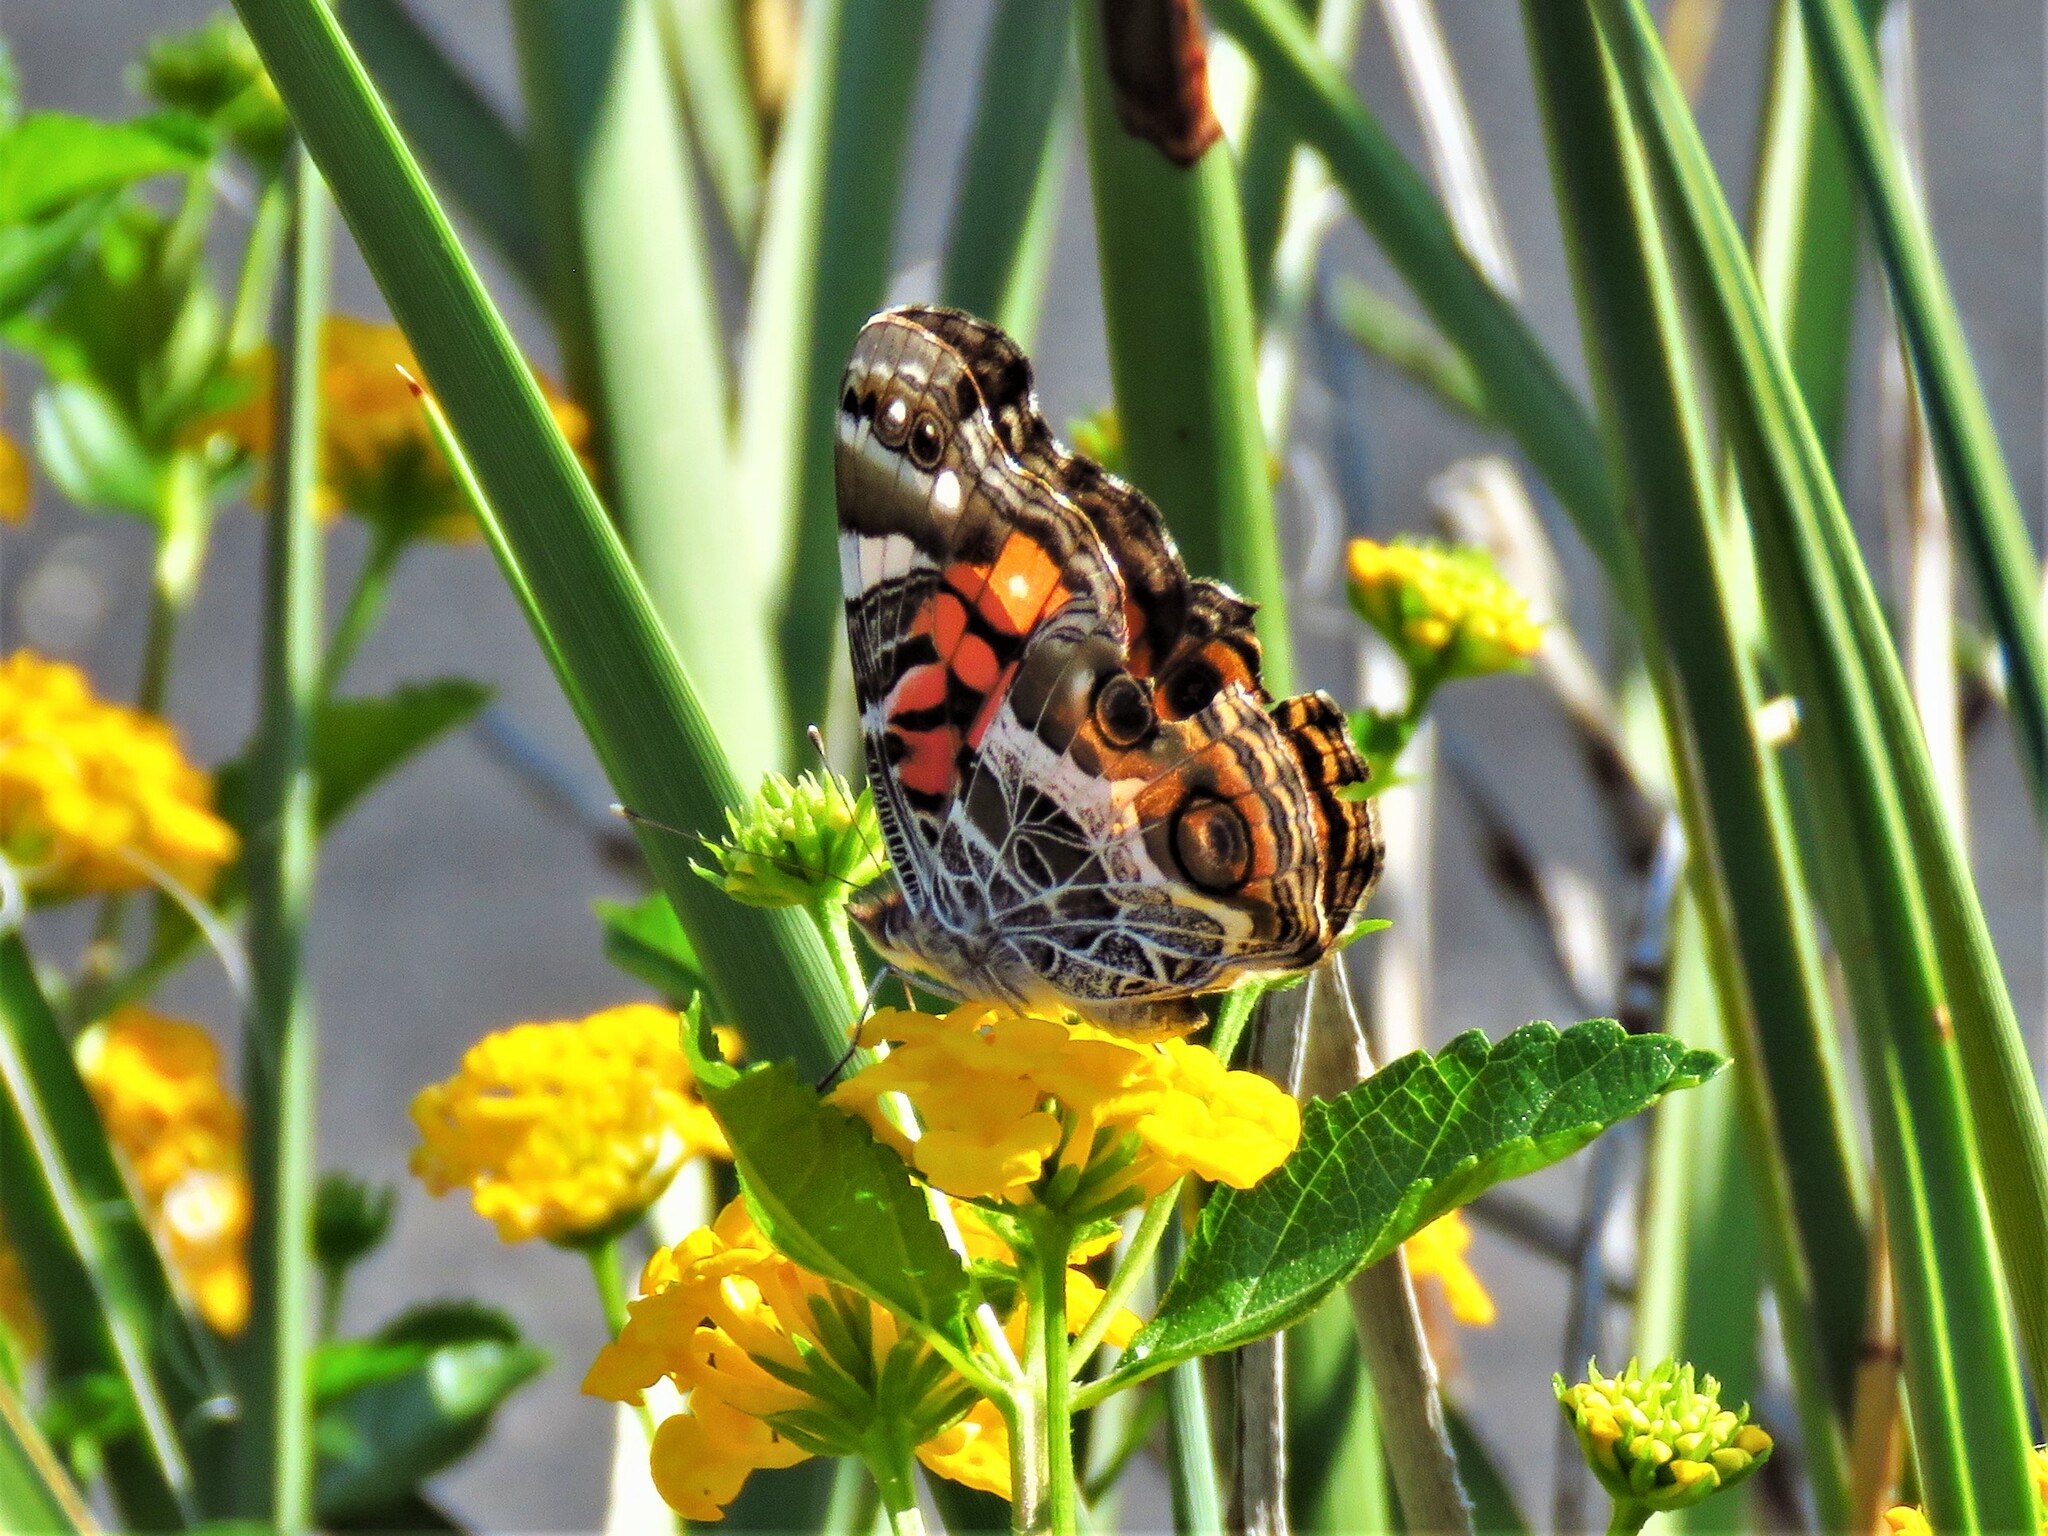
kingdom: Animalia
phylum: Arthropoda
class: Insecta
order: Lepidoptera
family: Nymphalidae
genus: Vanessa
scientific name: Vanessa virginiensis
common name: American lady
